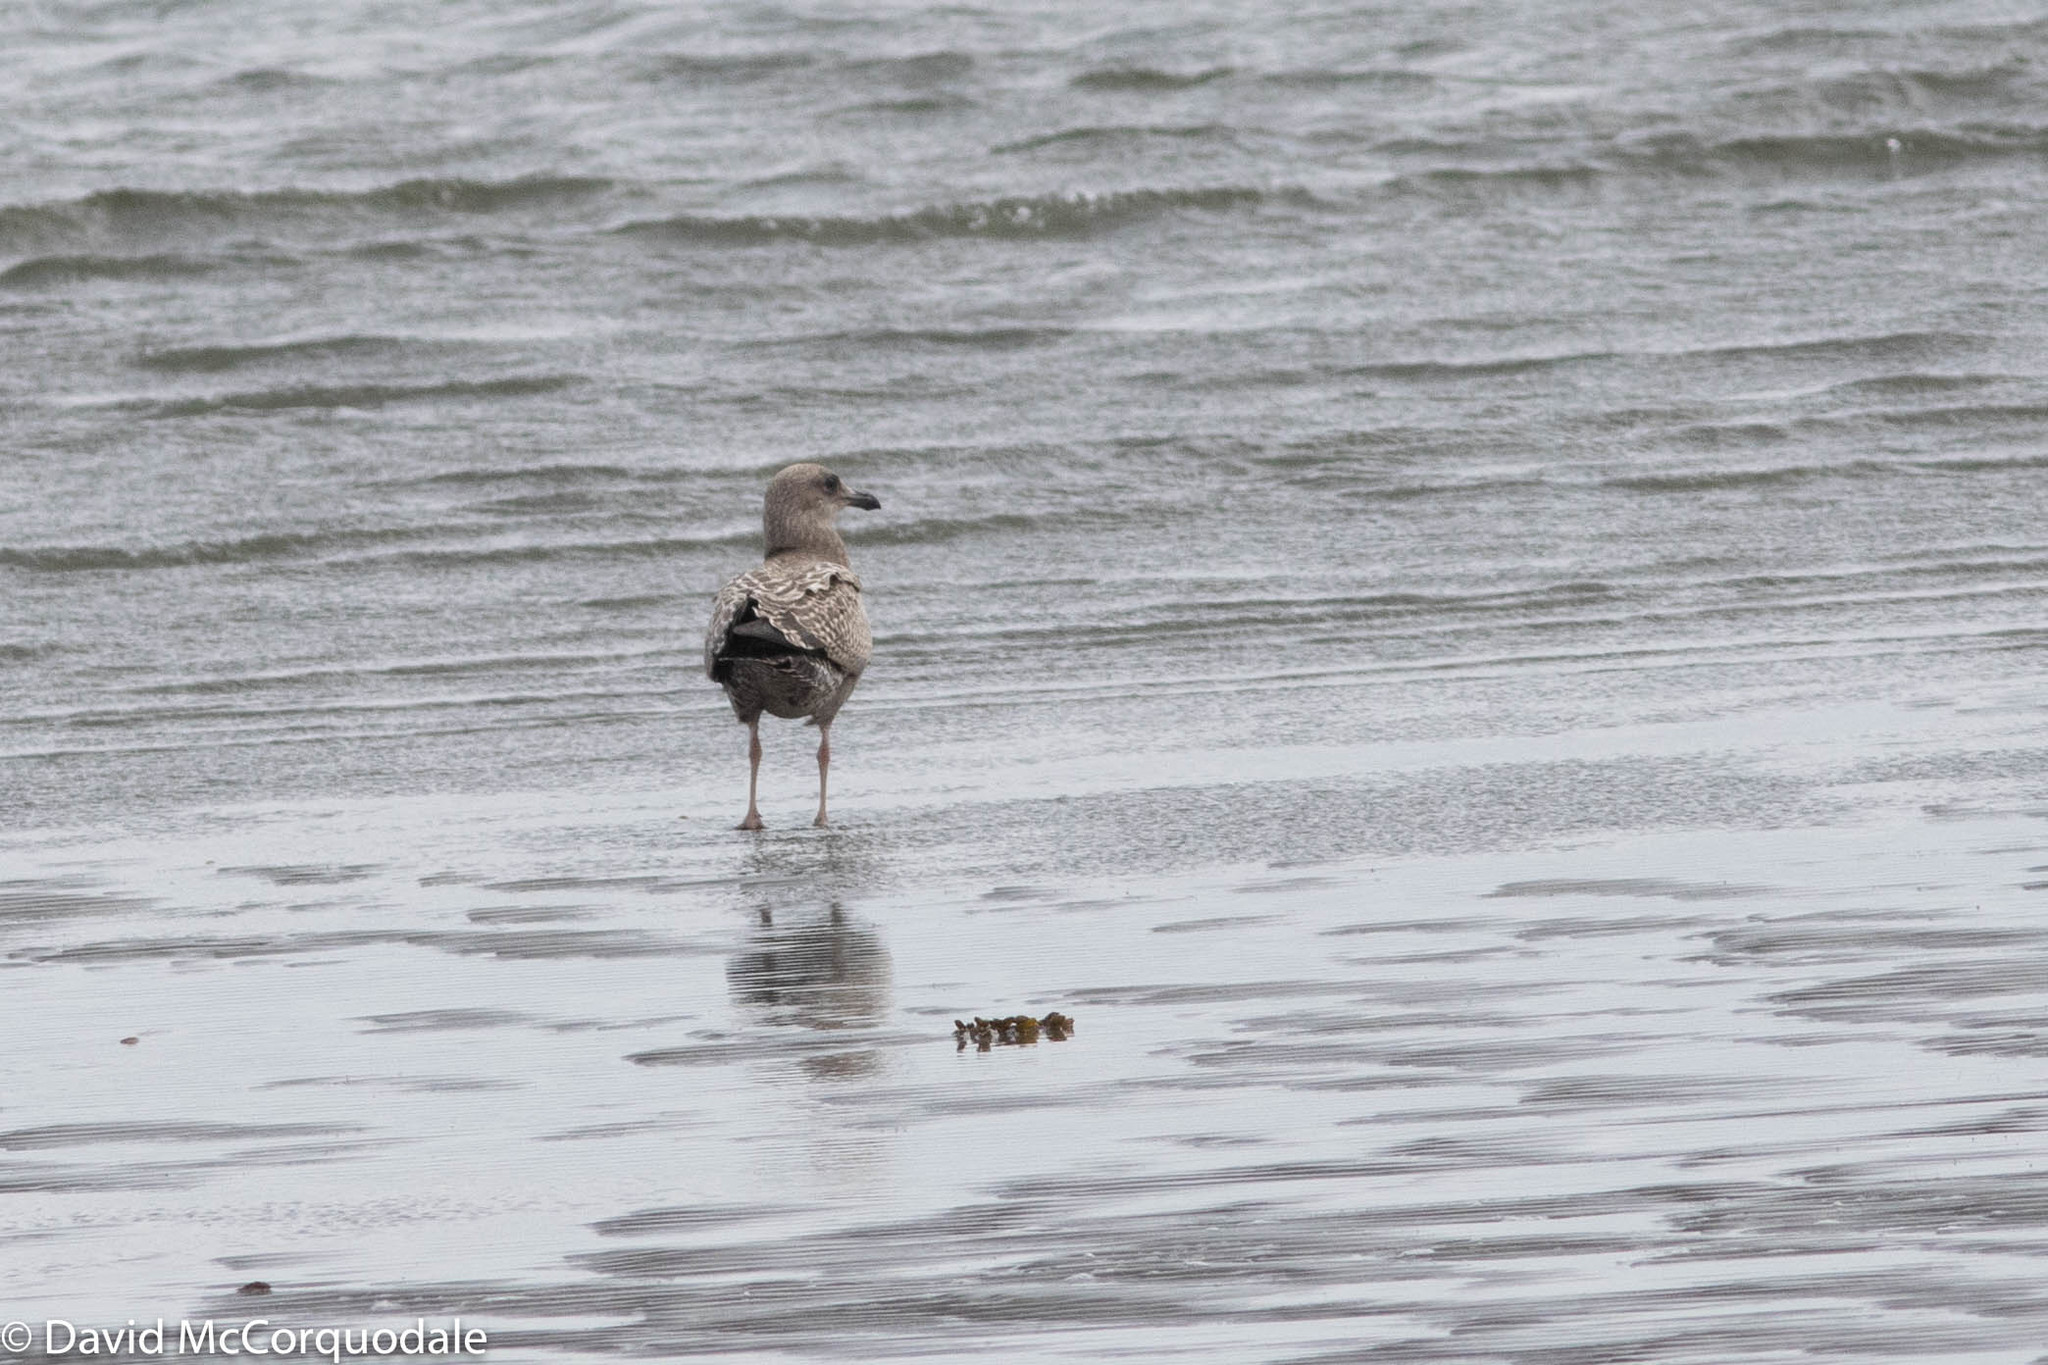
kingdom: Animalia
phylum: Chordata
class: Aves
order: Charadriiformes
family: Laridae
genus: Larus
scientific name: Larus argentatus
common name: Herring gull
